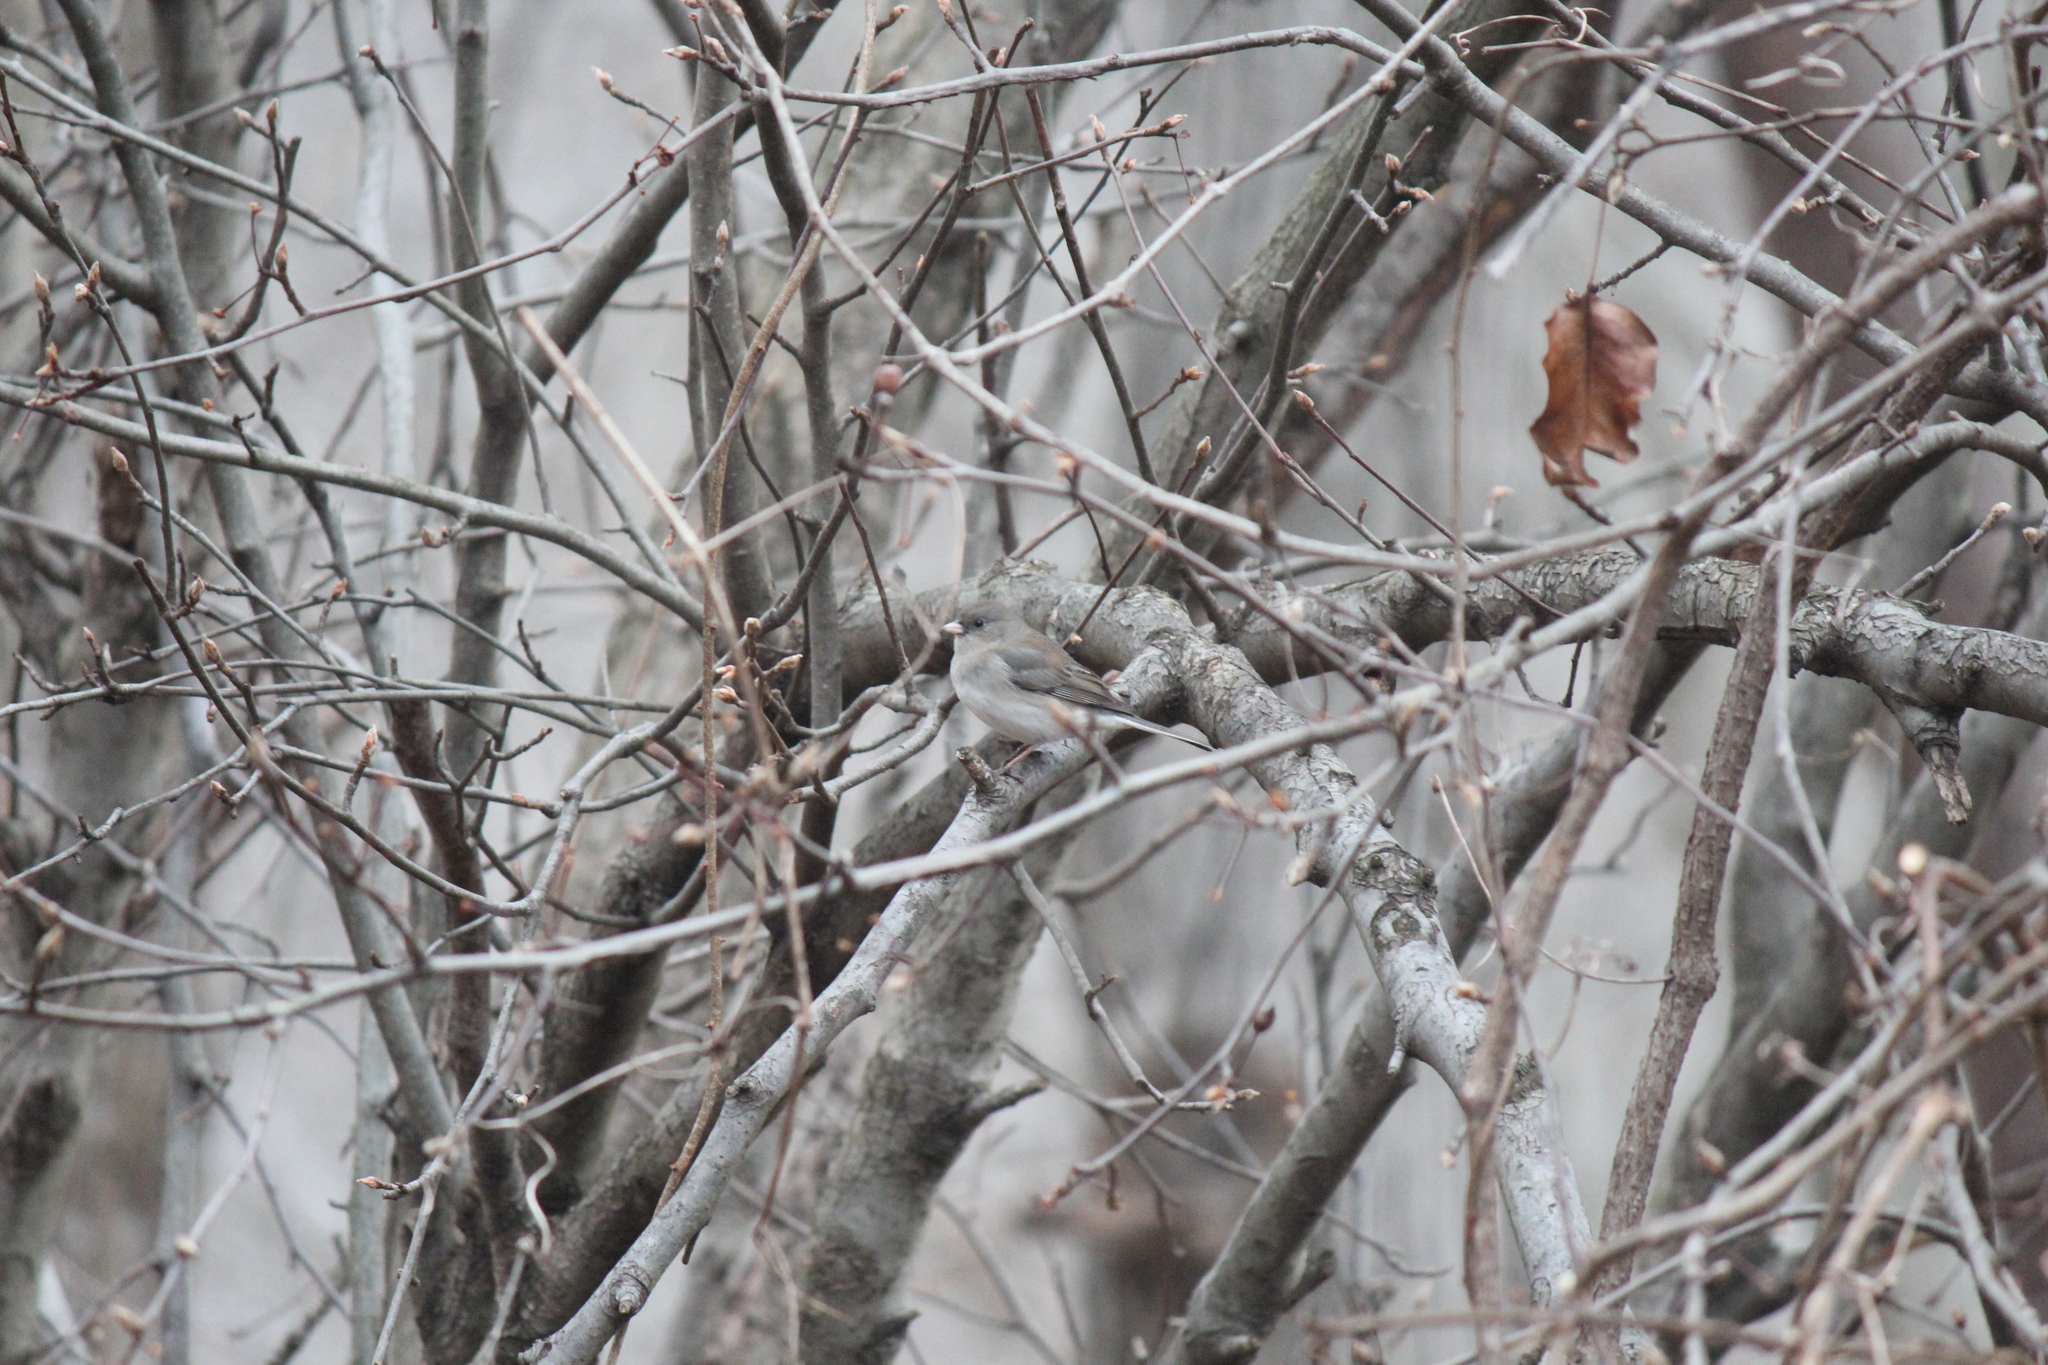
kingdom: Animalia
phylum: Chordata
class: Aves
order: Passeriformes
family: Passerellidae
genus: Junco
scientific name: Junco hyemalis
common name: Dark-eyed junco
